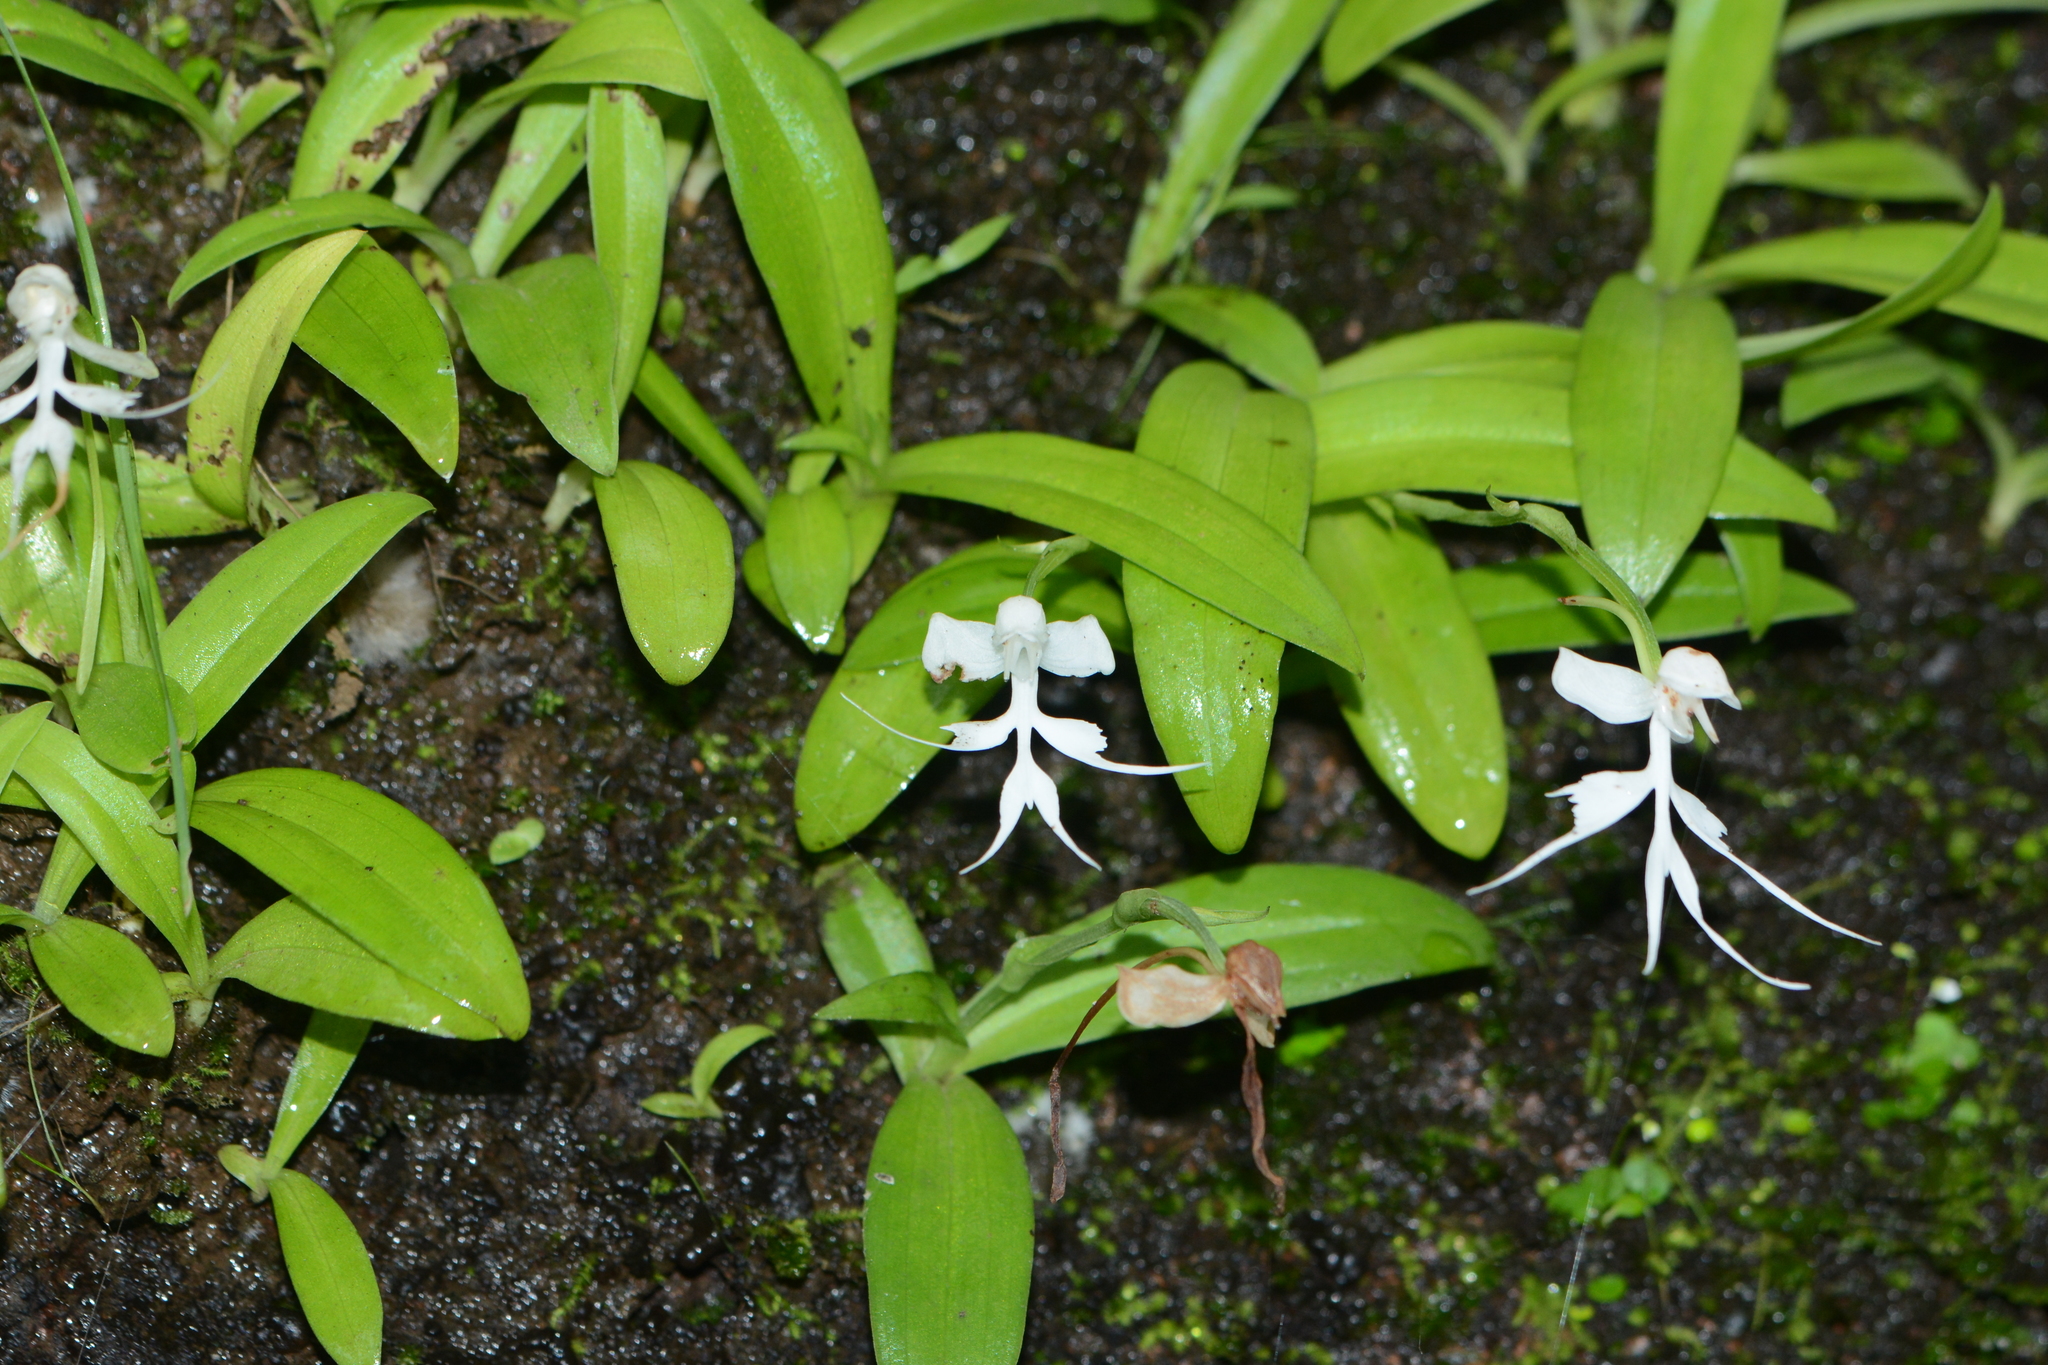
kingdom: Plantae
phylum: Tracheophyta
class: Liliopsida
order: Asparagales
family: Orchidaceae
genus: Habenaria
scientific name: Habenaria crinifera
